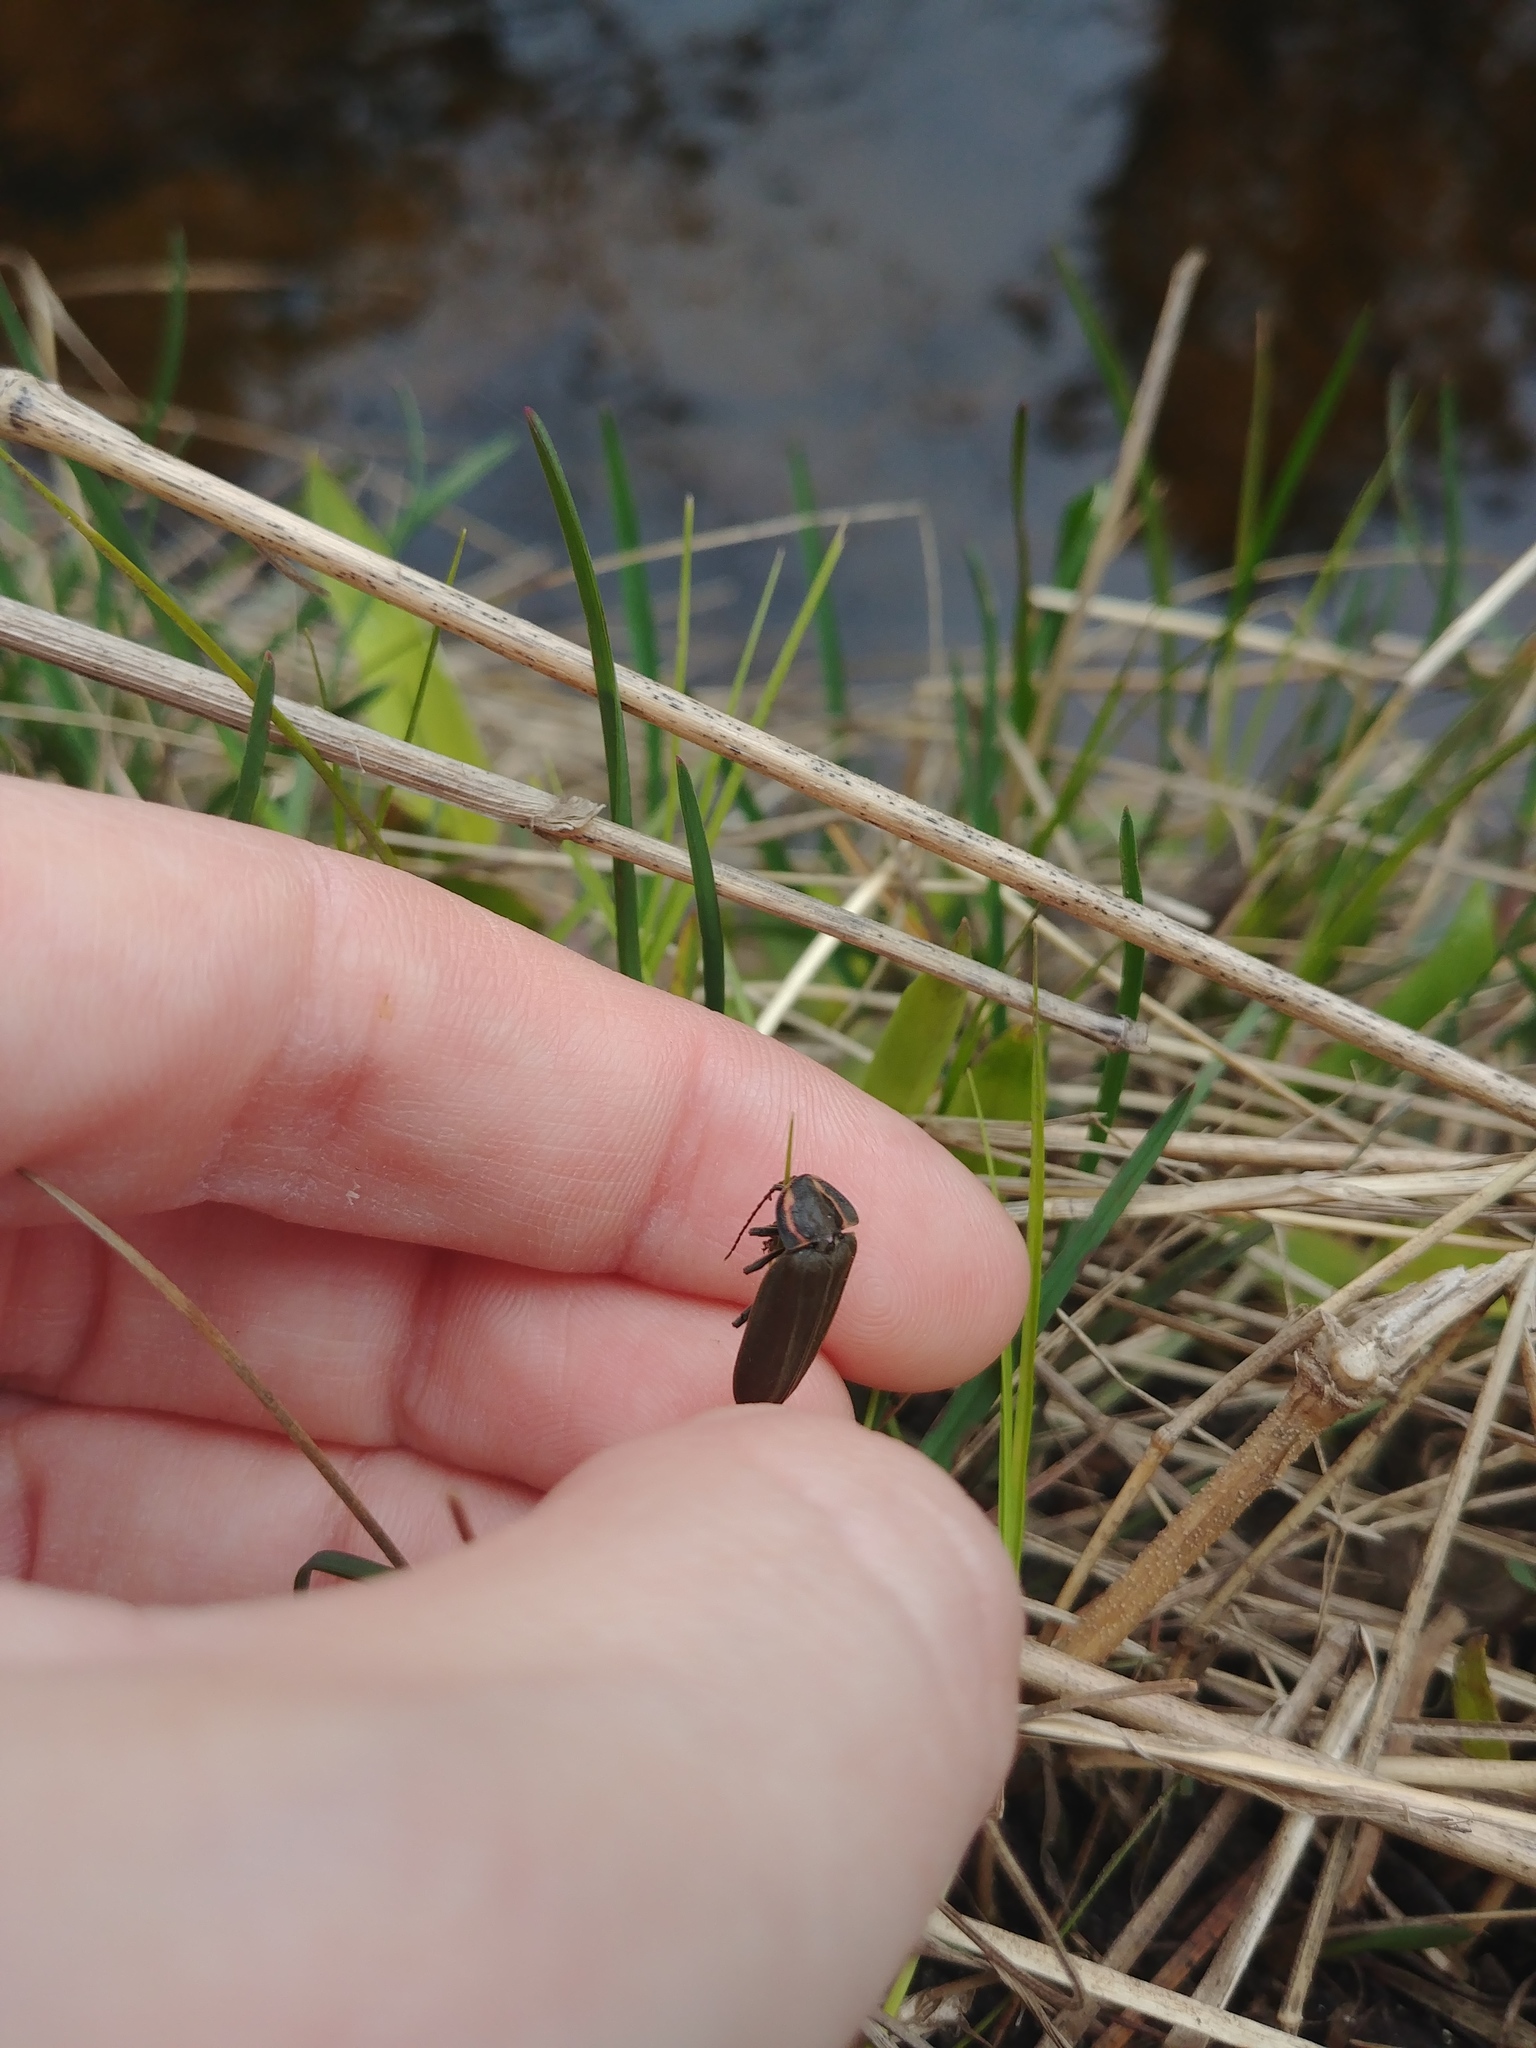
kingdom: Animalia
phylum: Arthropoda
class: Insecta
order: Coleoptera
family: Lampyridae
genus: Photinus
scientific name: Photinus corrusca
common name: Winter firefly
